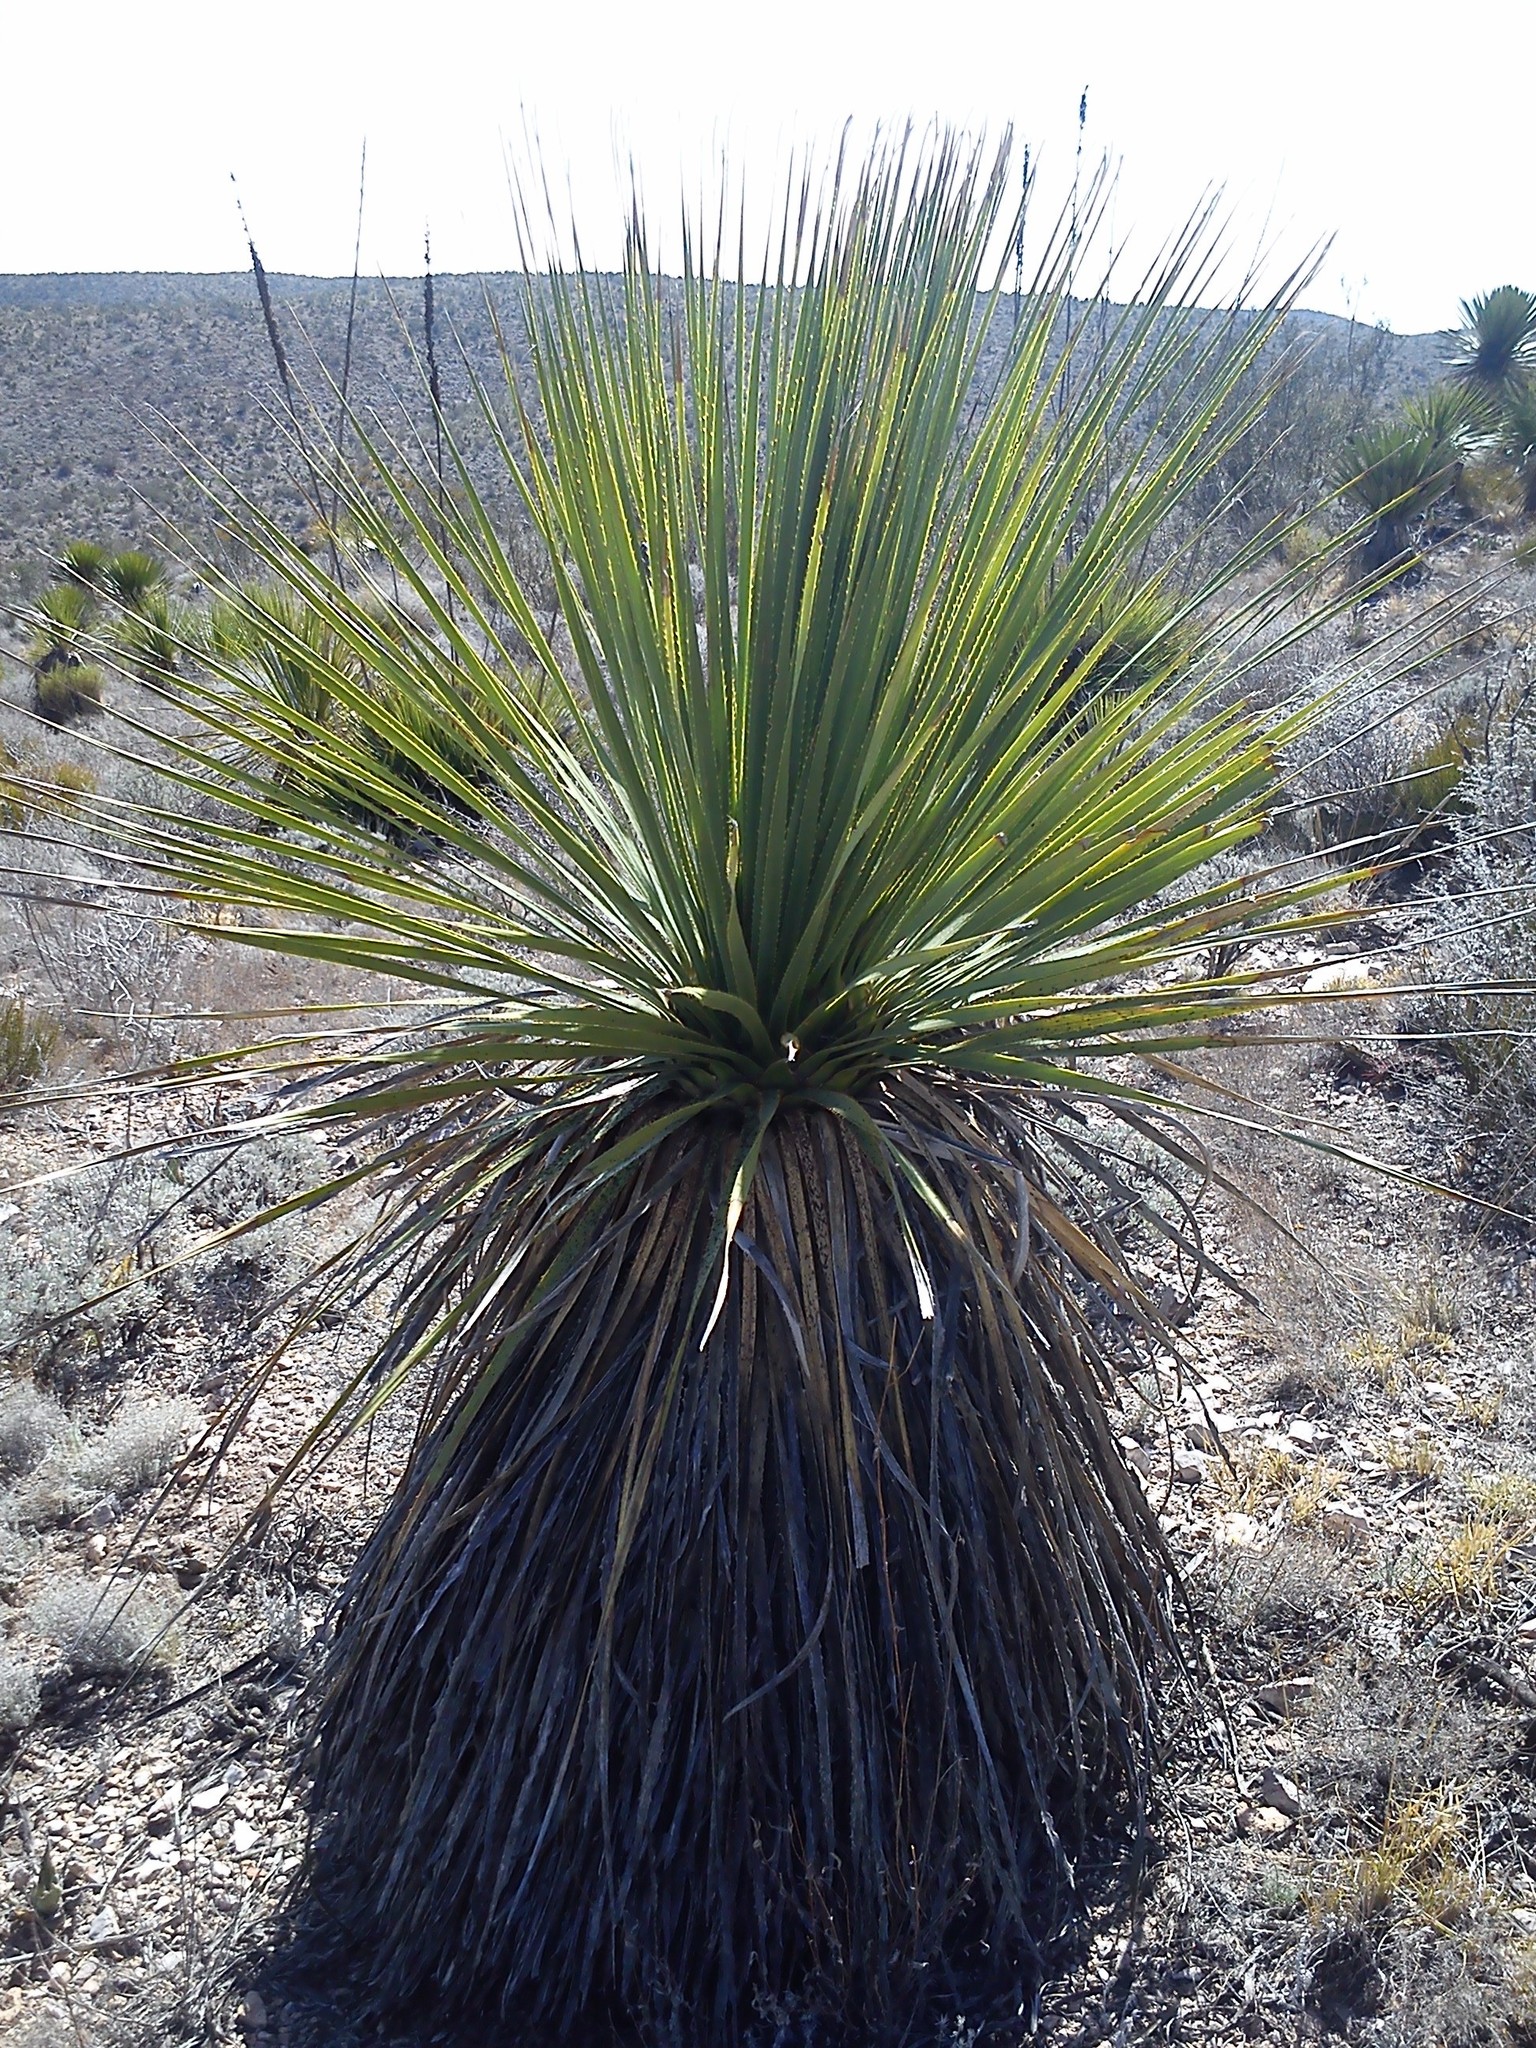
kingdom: Plantae
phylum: Tracheophyta
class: Liliopsida
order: Asparagales
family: Asparagaceae
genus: Dasylirion
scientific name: Dasylirion acrotrichum
